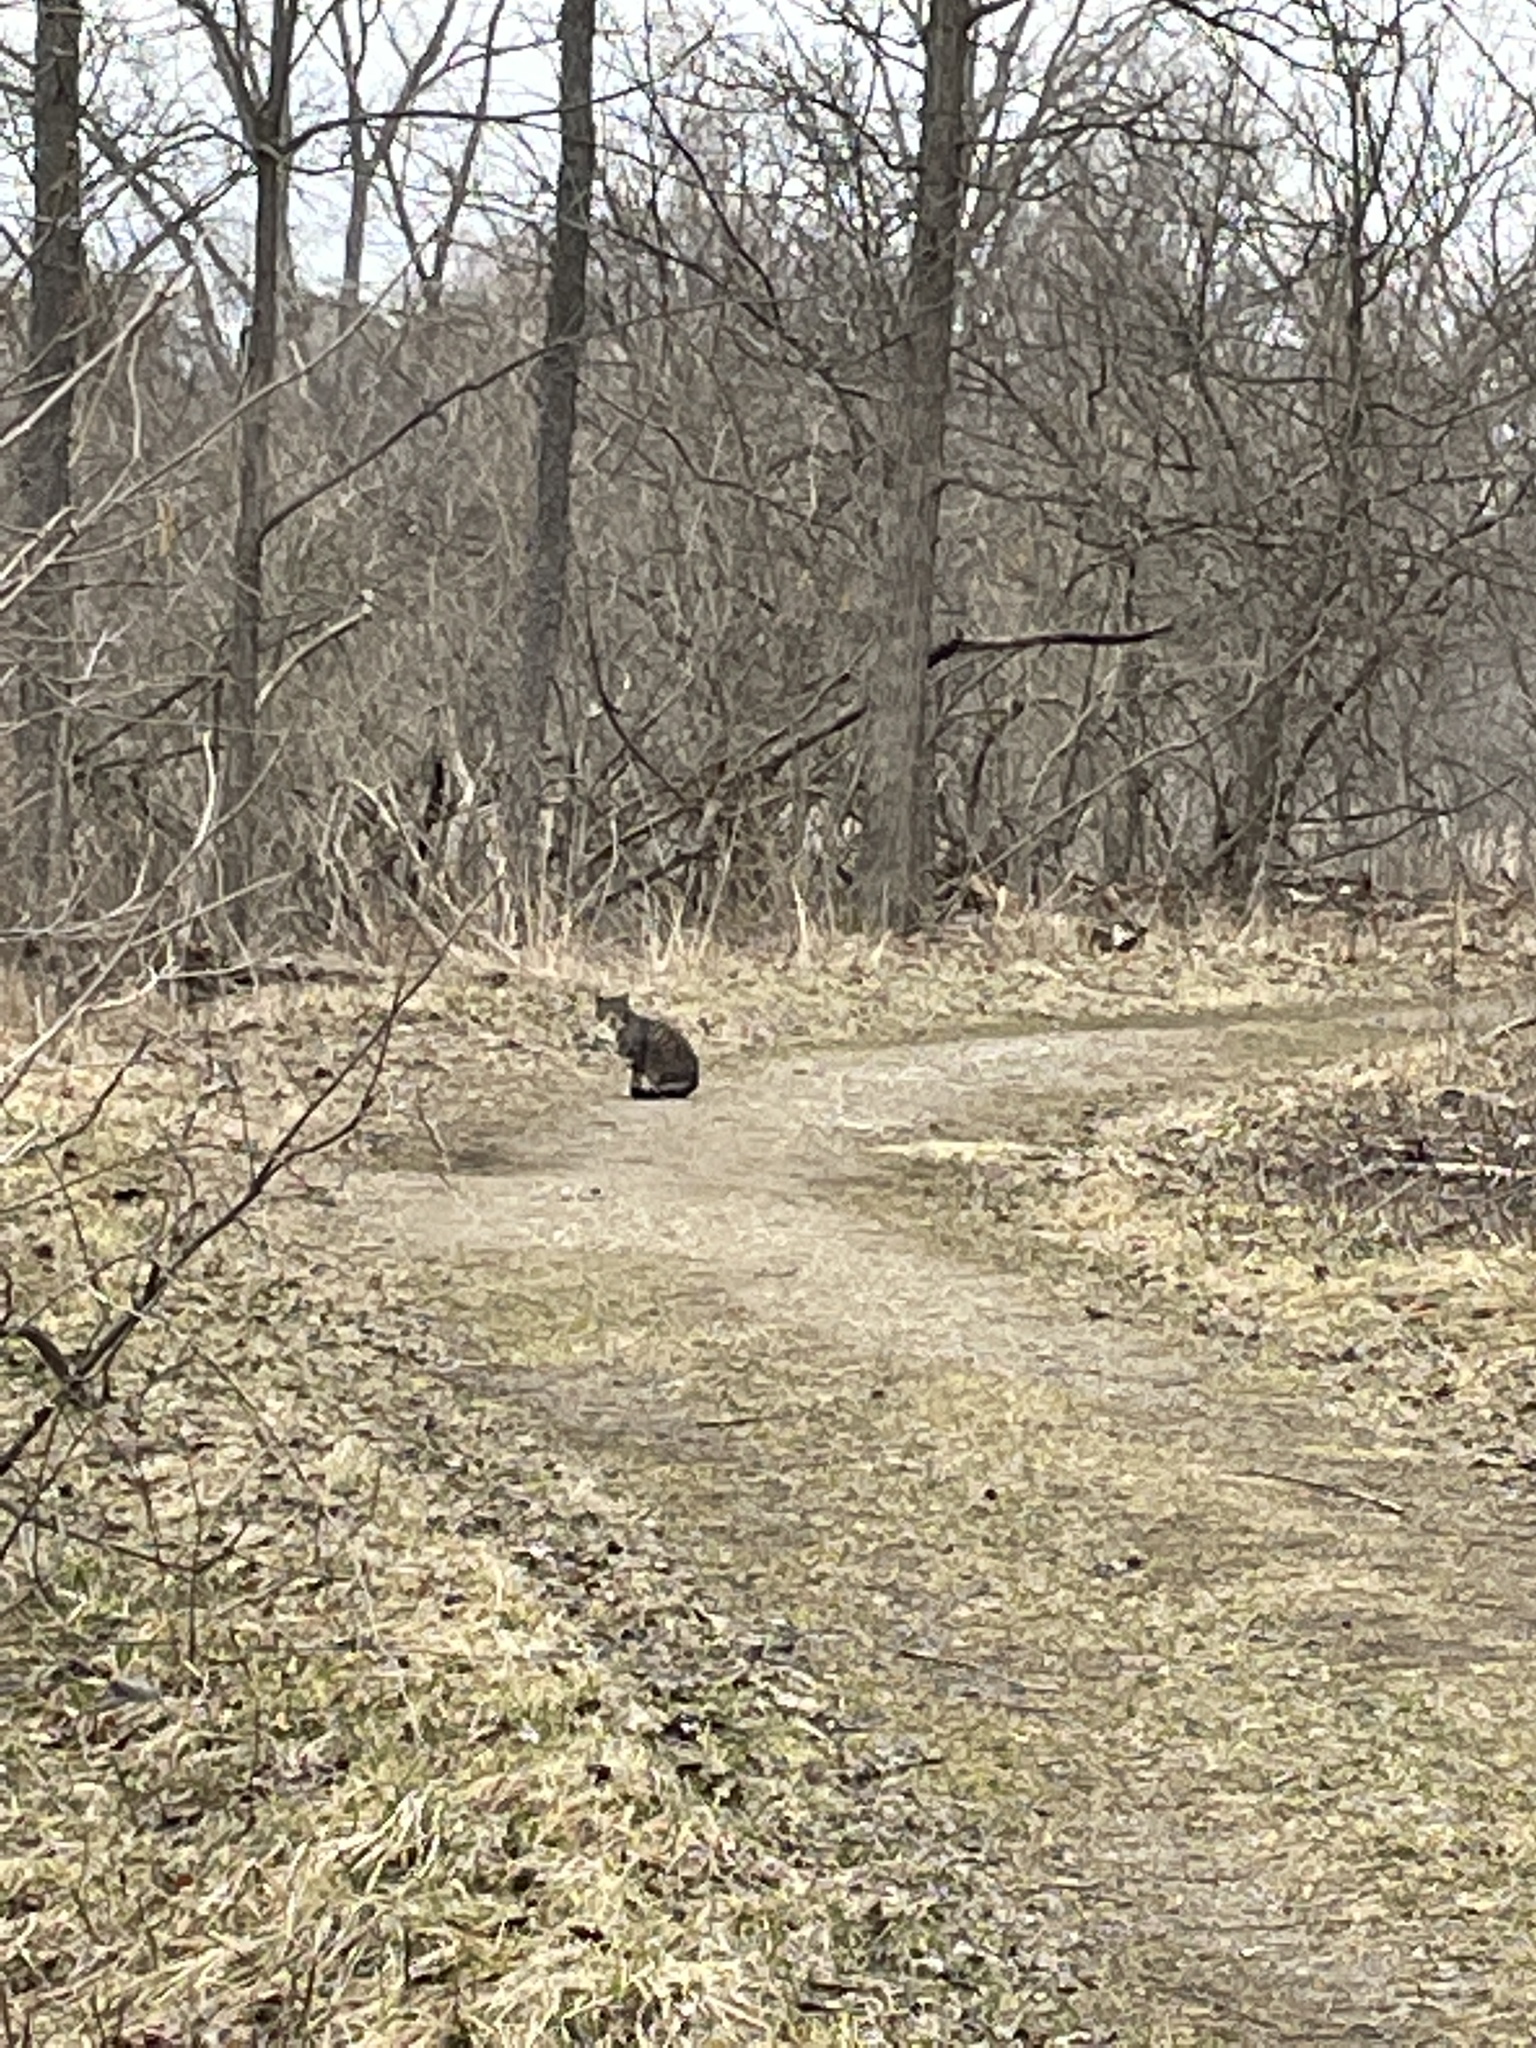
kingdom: Animalia
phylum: Chordata
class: Mammalia
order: Carnivora
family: Felidae
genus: Felis
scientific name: Felis catus
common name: Domestic cat
